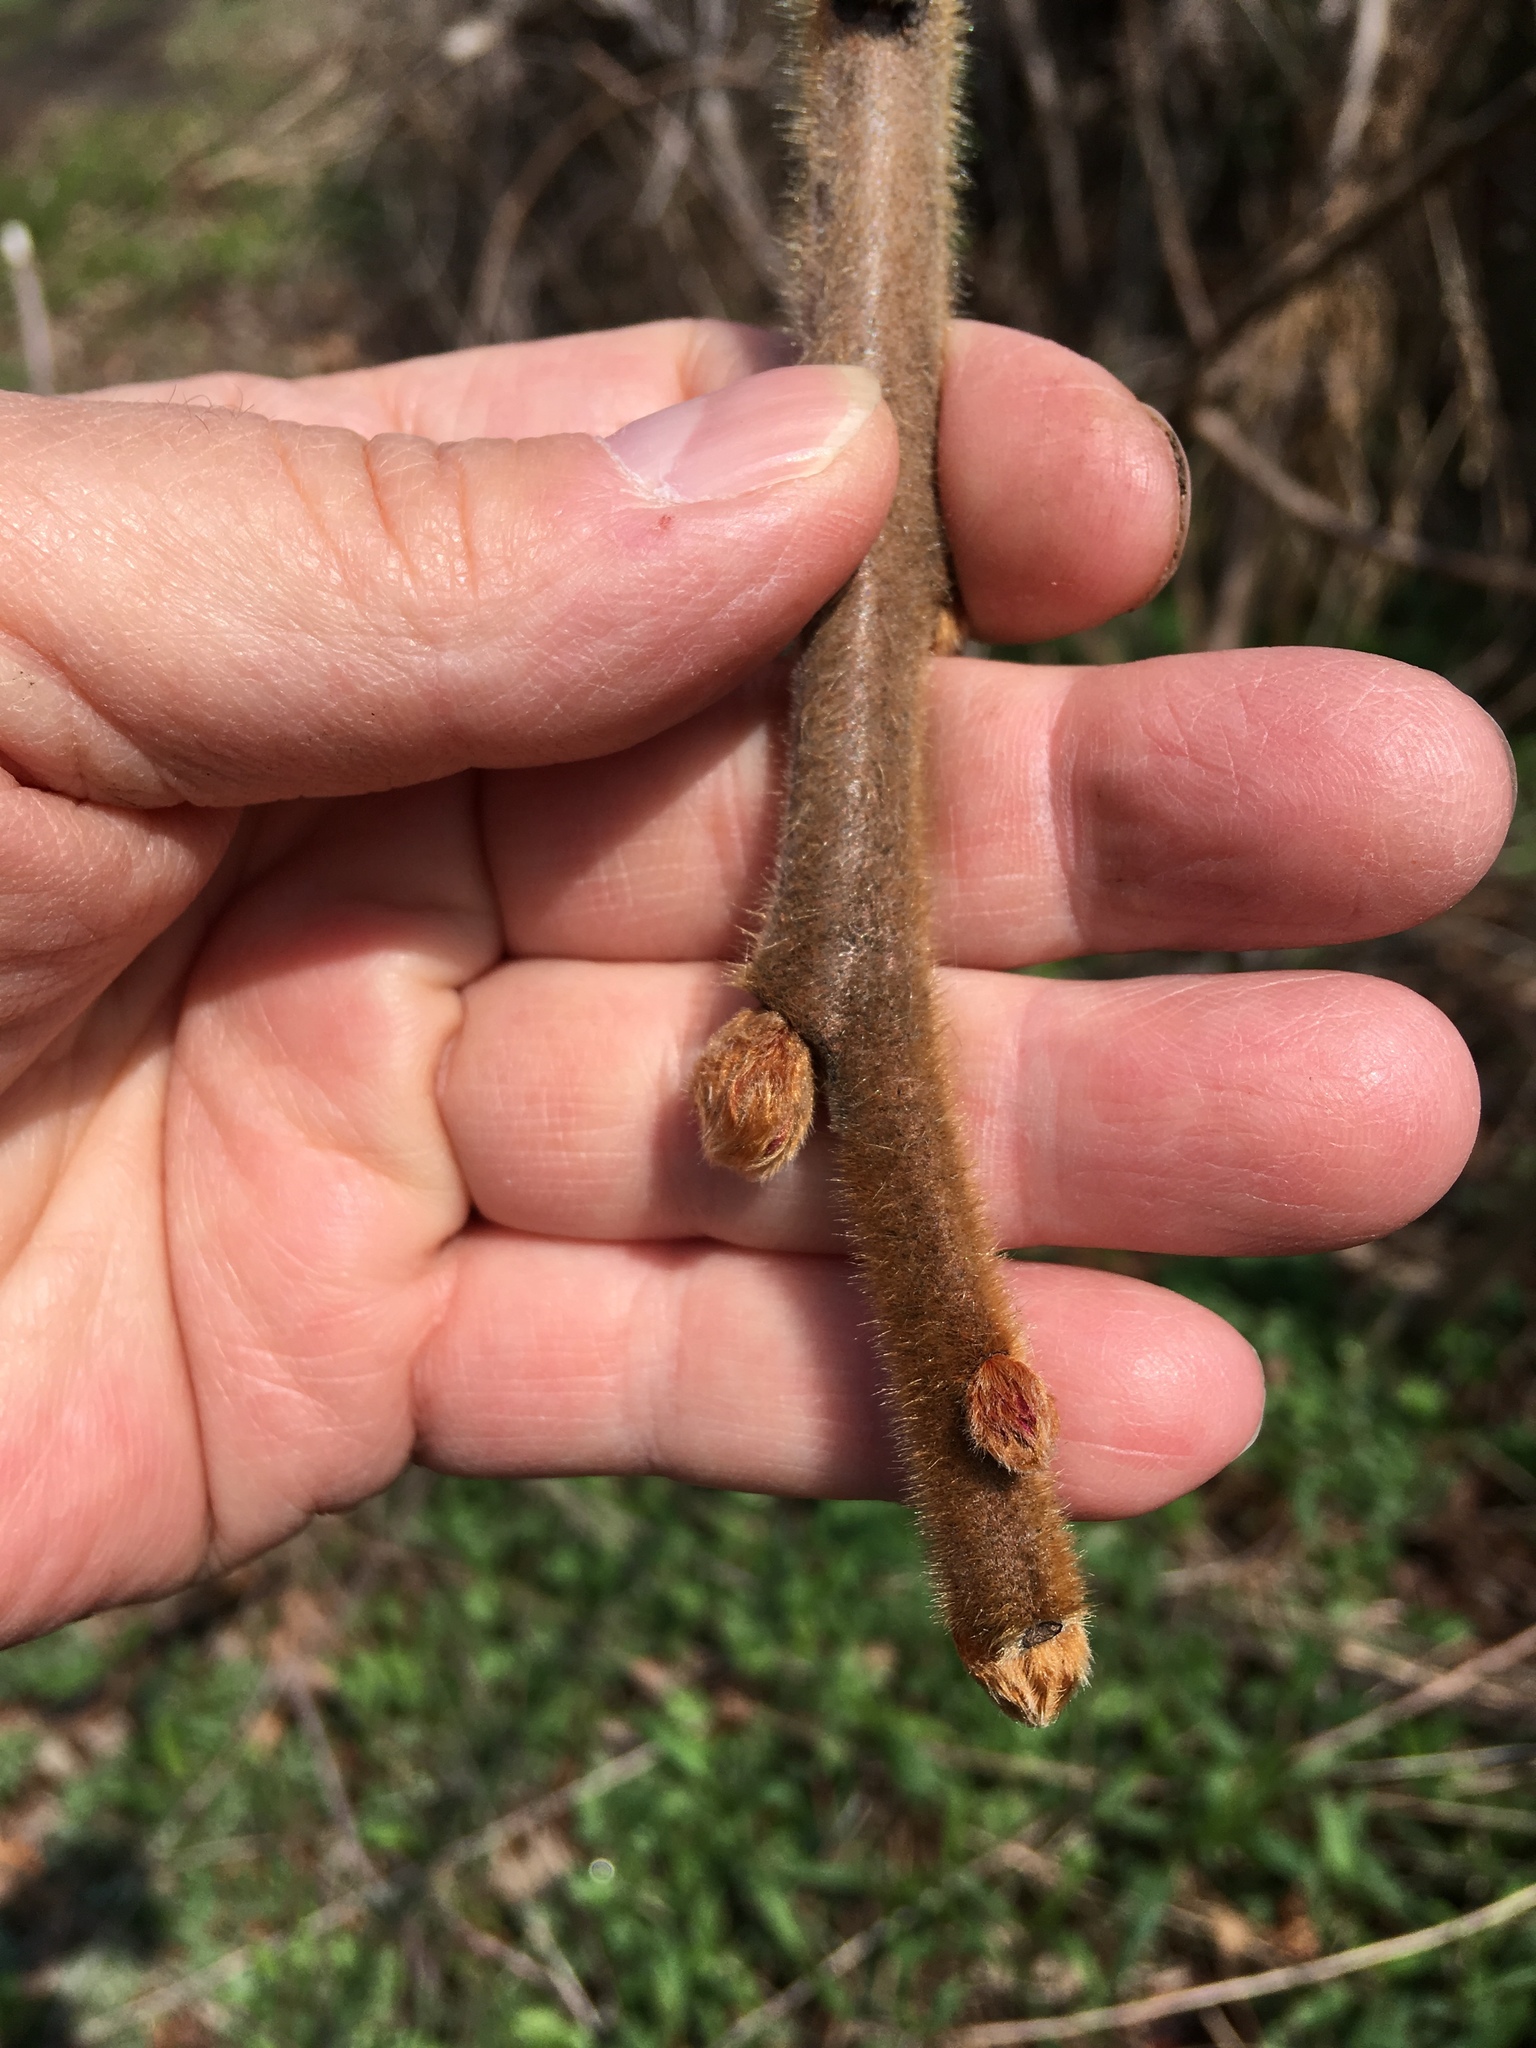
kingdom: Plantae
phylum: Tracheophyta
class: Magnoliopsida
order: Sapindales
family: Anacardiaceae
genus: Rhus
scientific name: Rhus typhina
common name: Staghorn sumac
